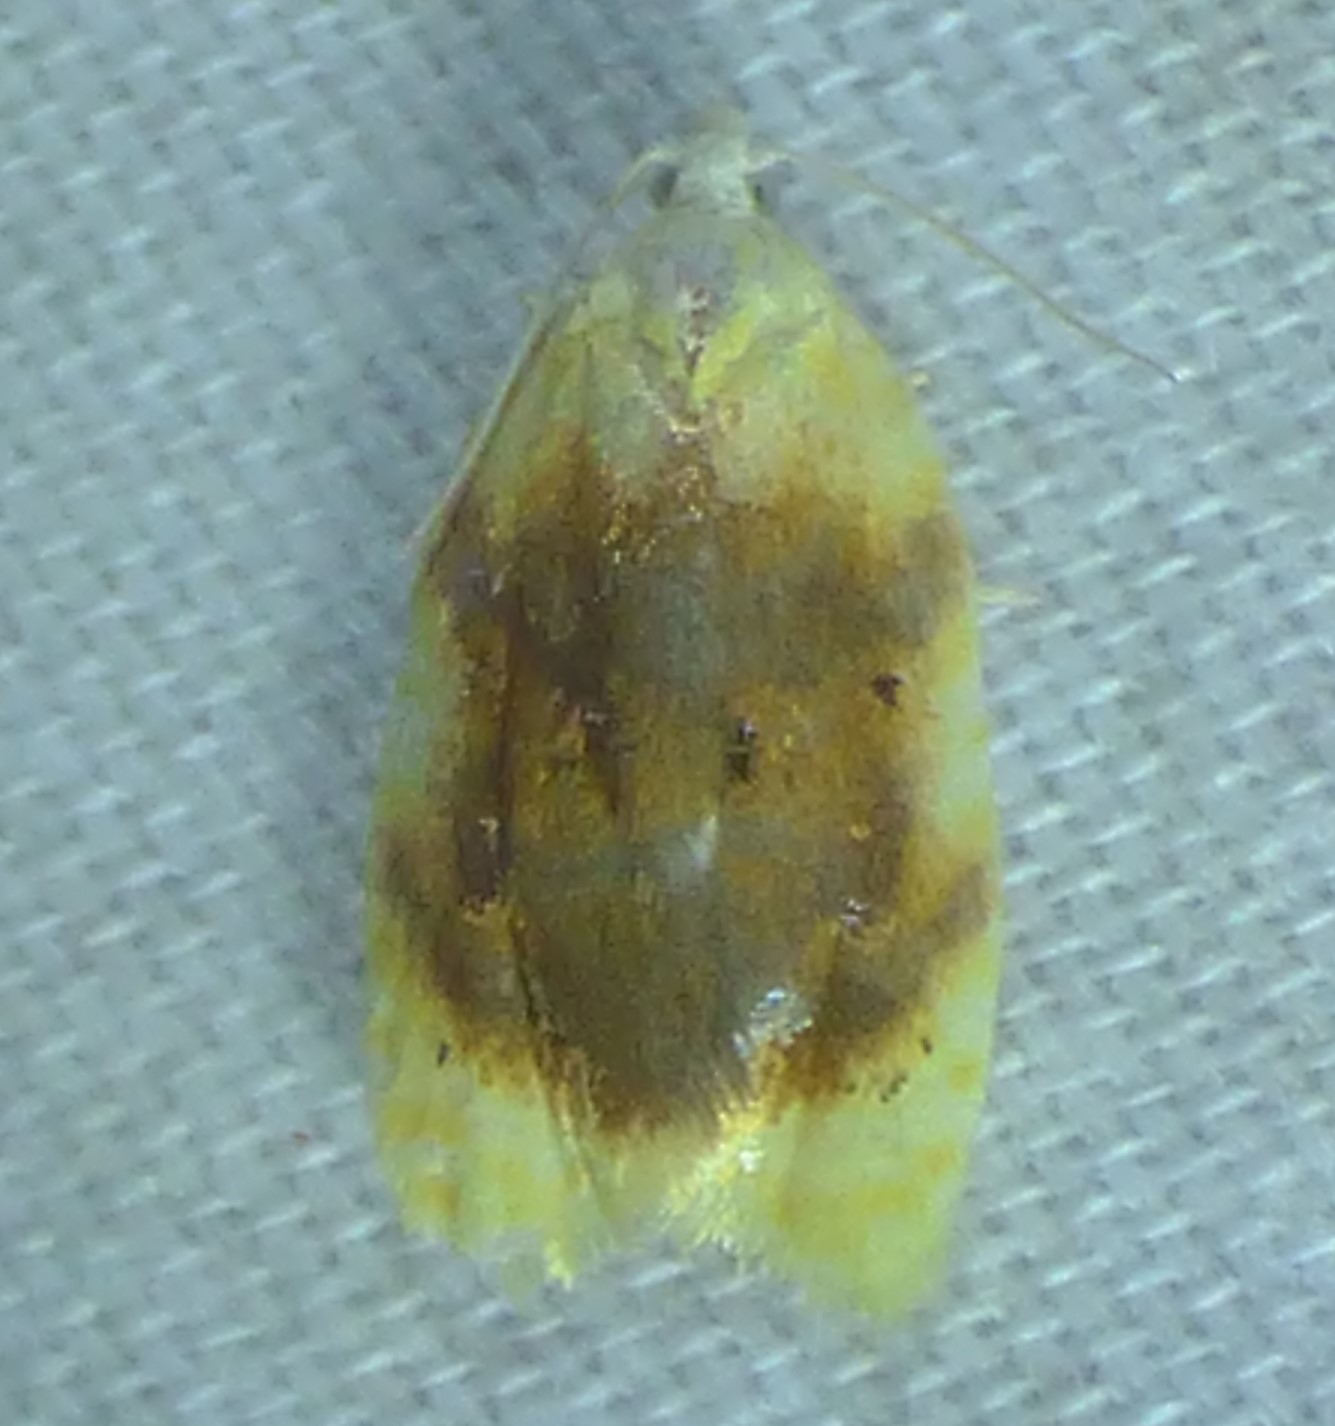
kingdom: Animalia
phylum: Arthropoda
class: Insecta
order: Lepidoptera
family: Tortricidae
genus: Acleris
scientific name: Acleris semipurpurana
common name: Oak leaftier moth
